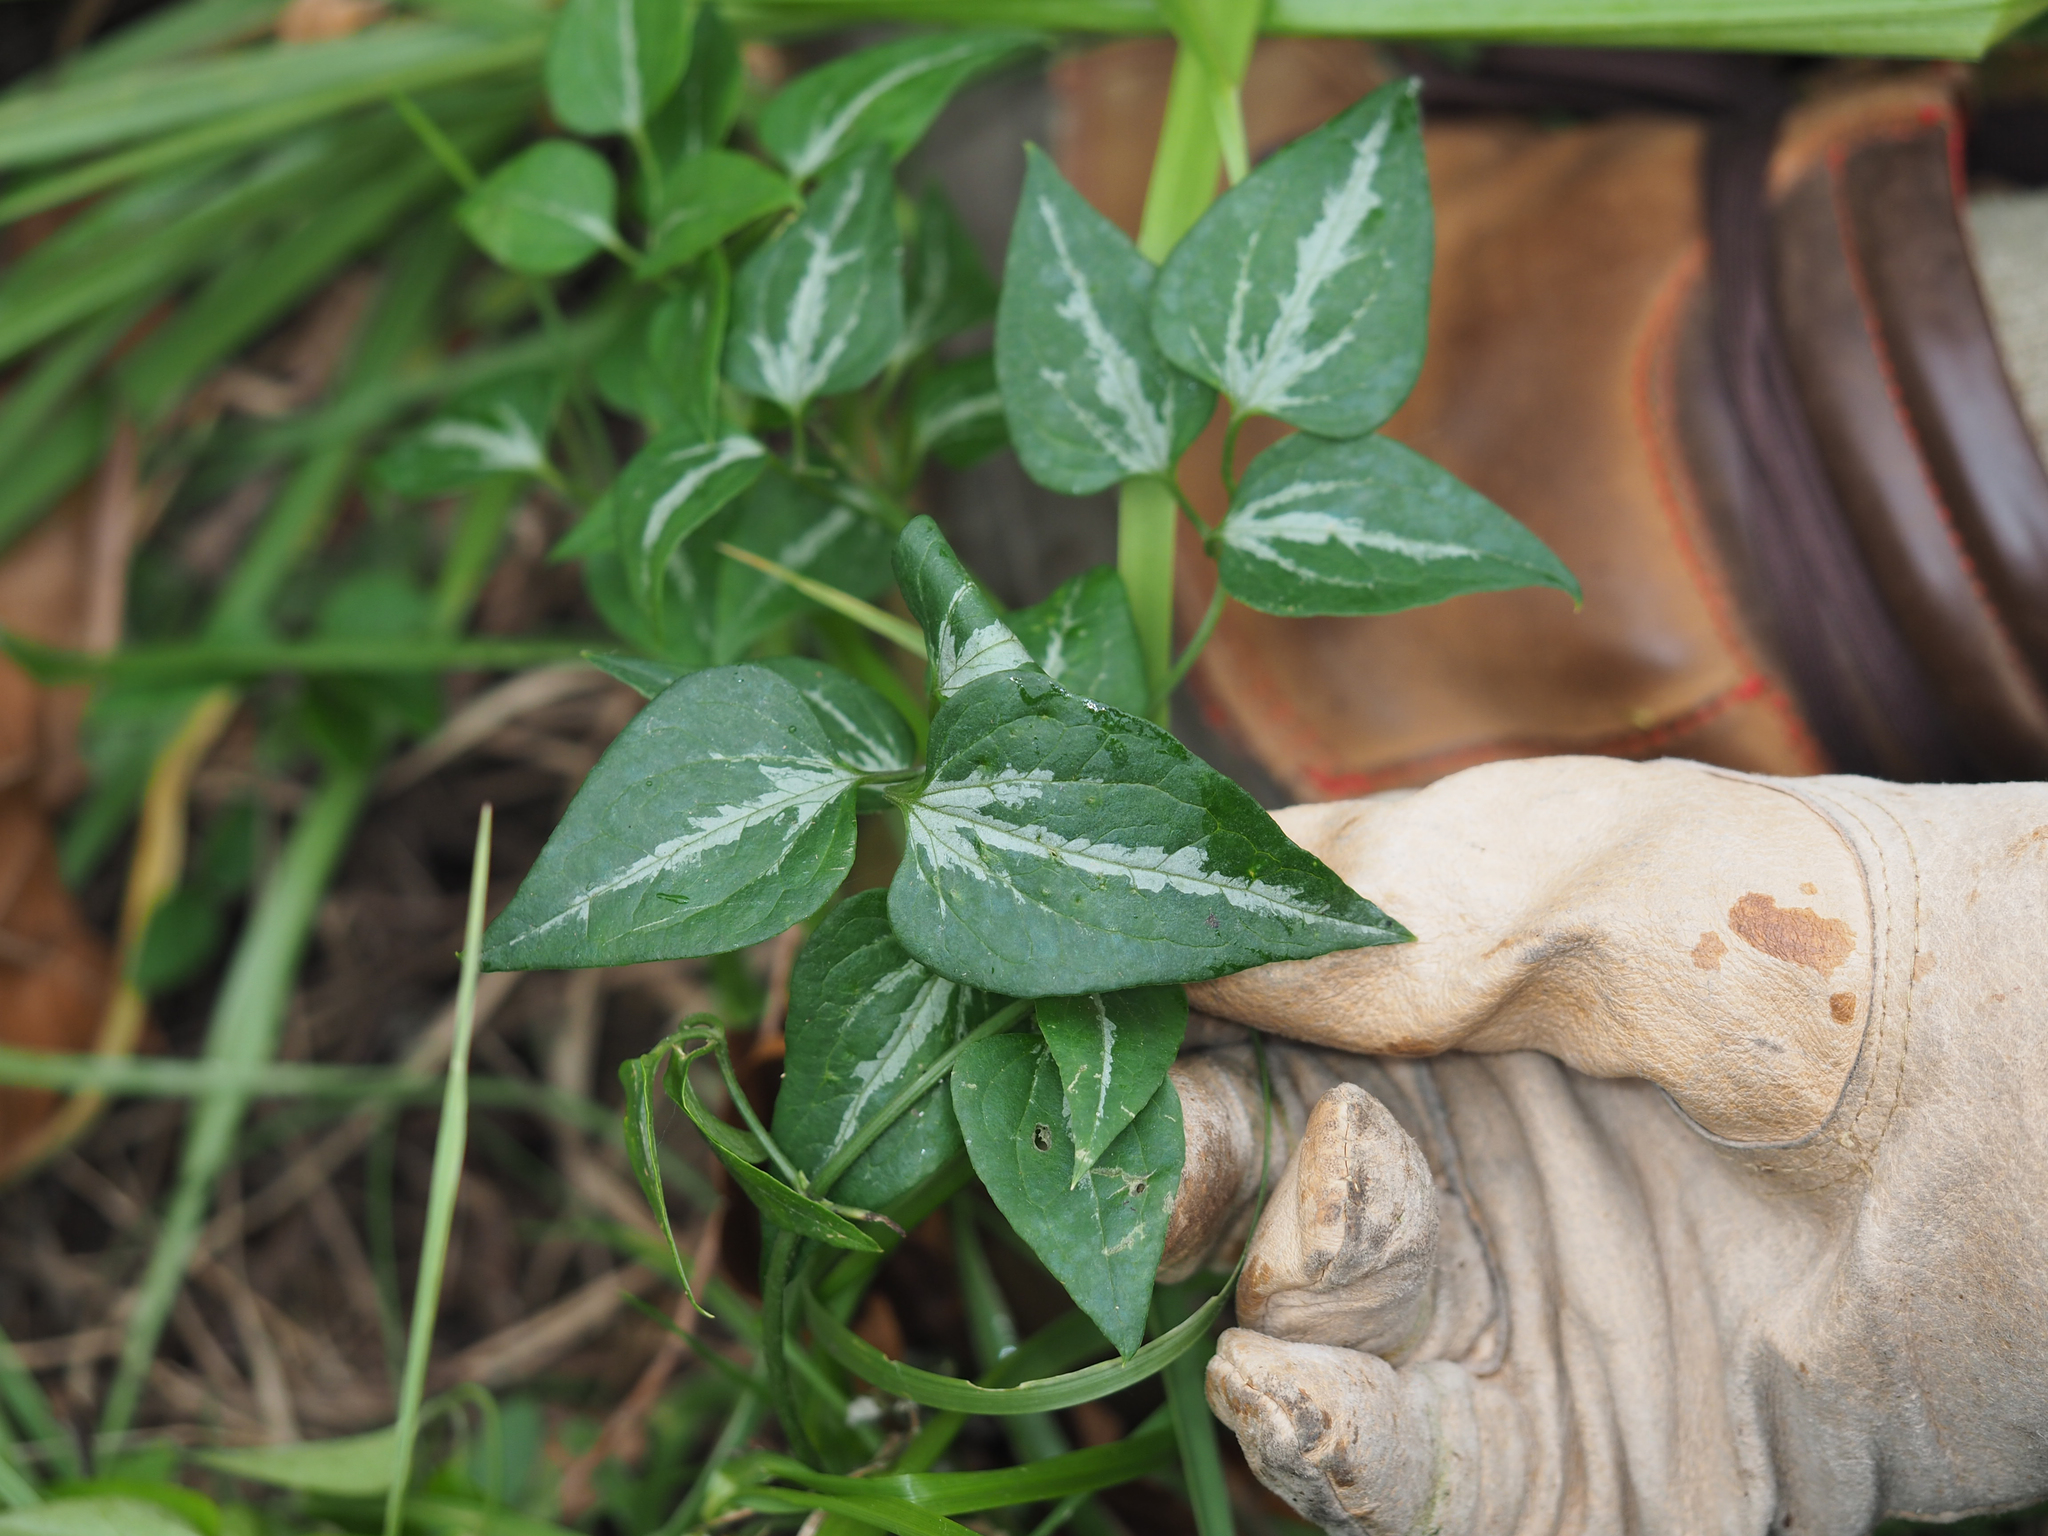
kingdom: Plantae
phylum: Tracheophyta
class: Magnoliopsida
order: Ranunculales
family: Ranunculaceae
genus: Clematis
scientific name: Clematis terniflora
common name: Sweet autumn clematis
